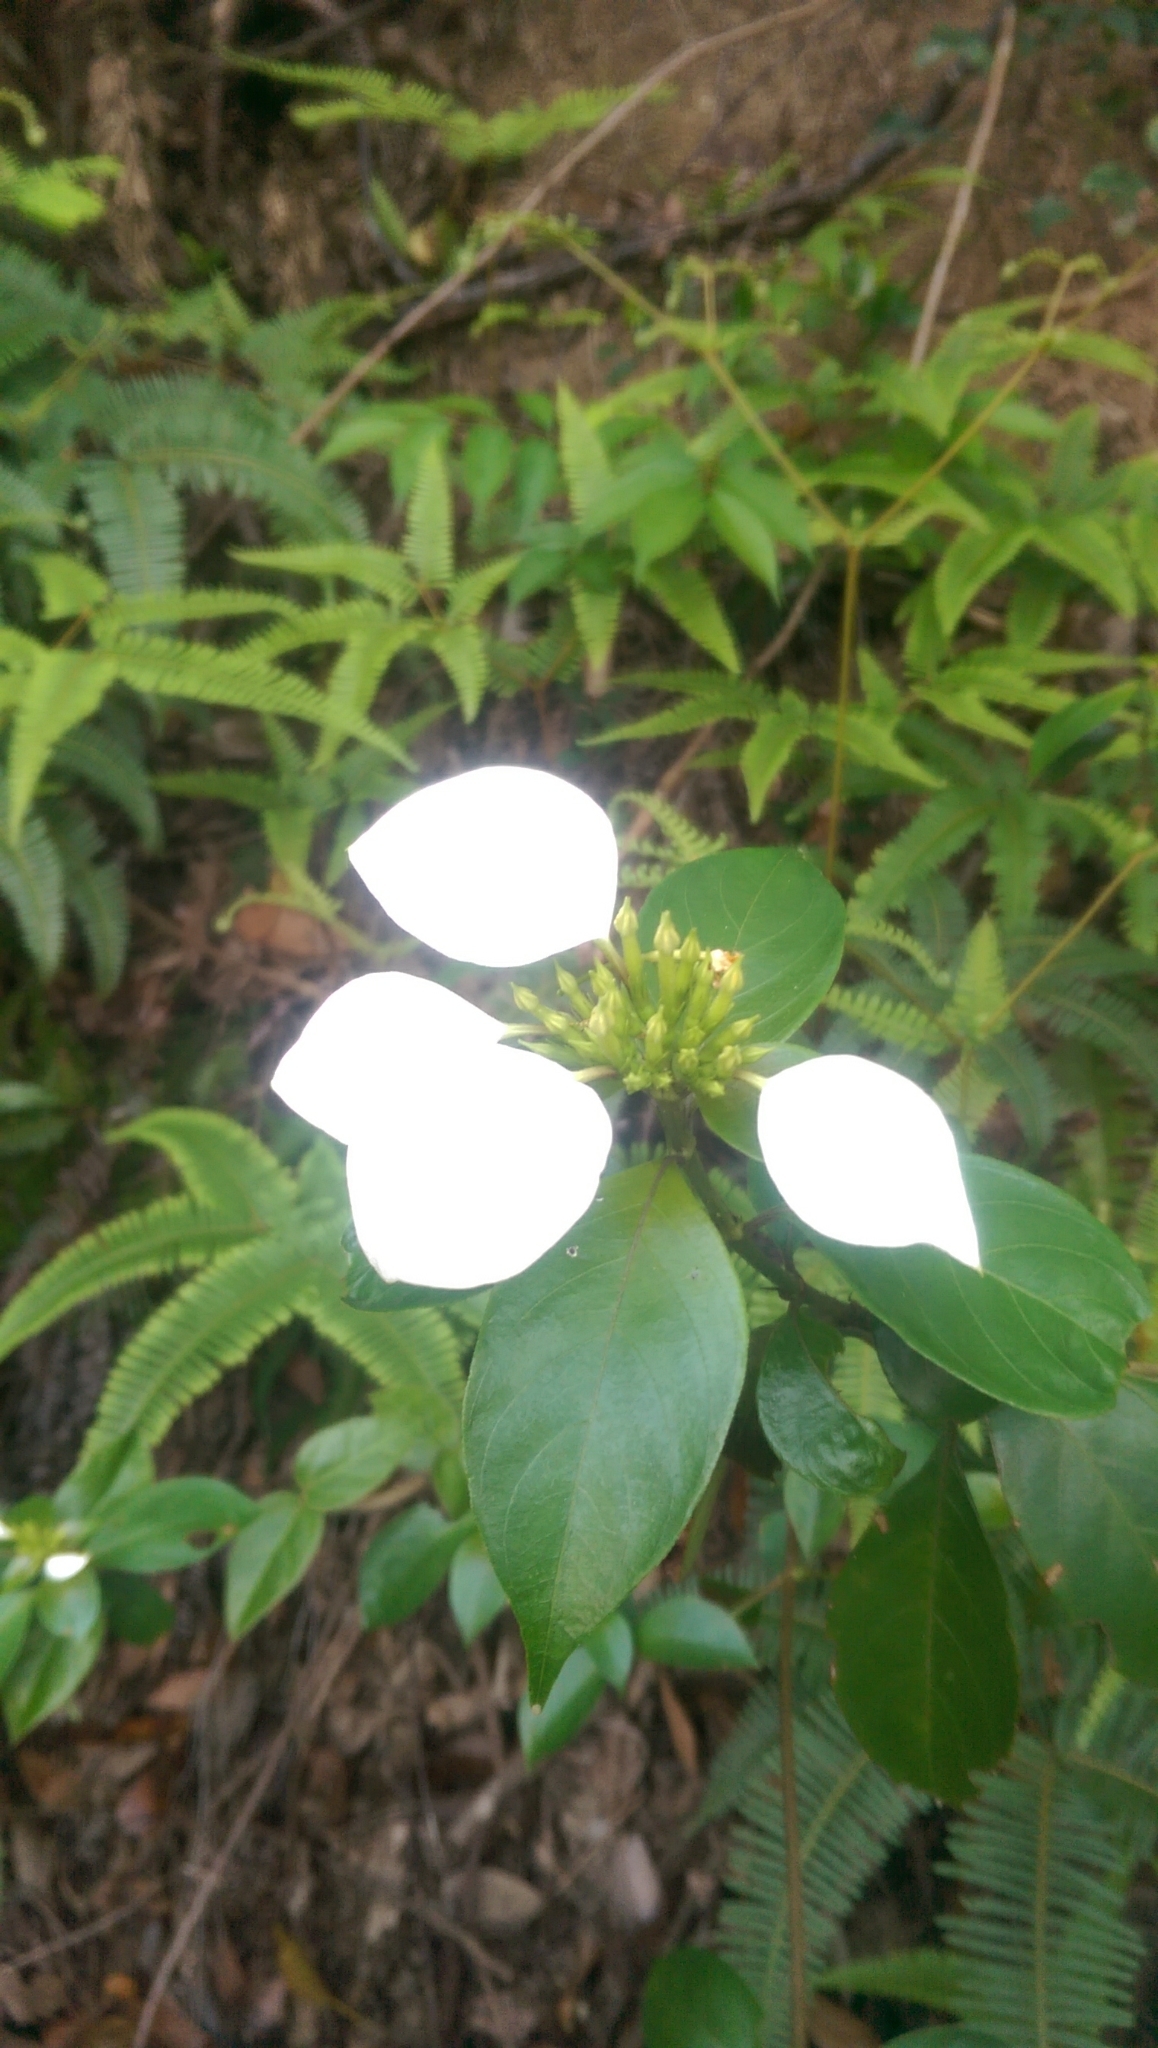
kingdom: Plantae
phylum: Tracheophyta
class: Magnoliopsida
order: Gentianales
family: Rubiaceae
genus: Mussaenda
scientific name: Mussaenda pubescens
